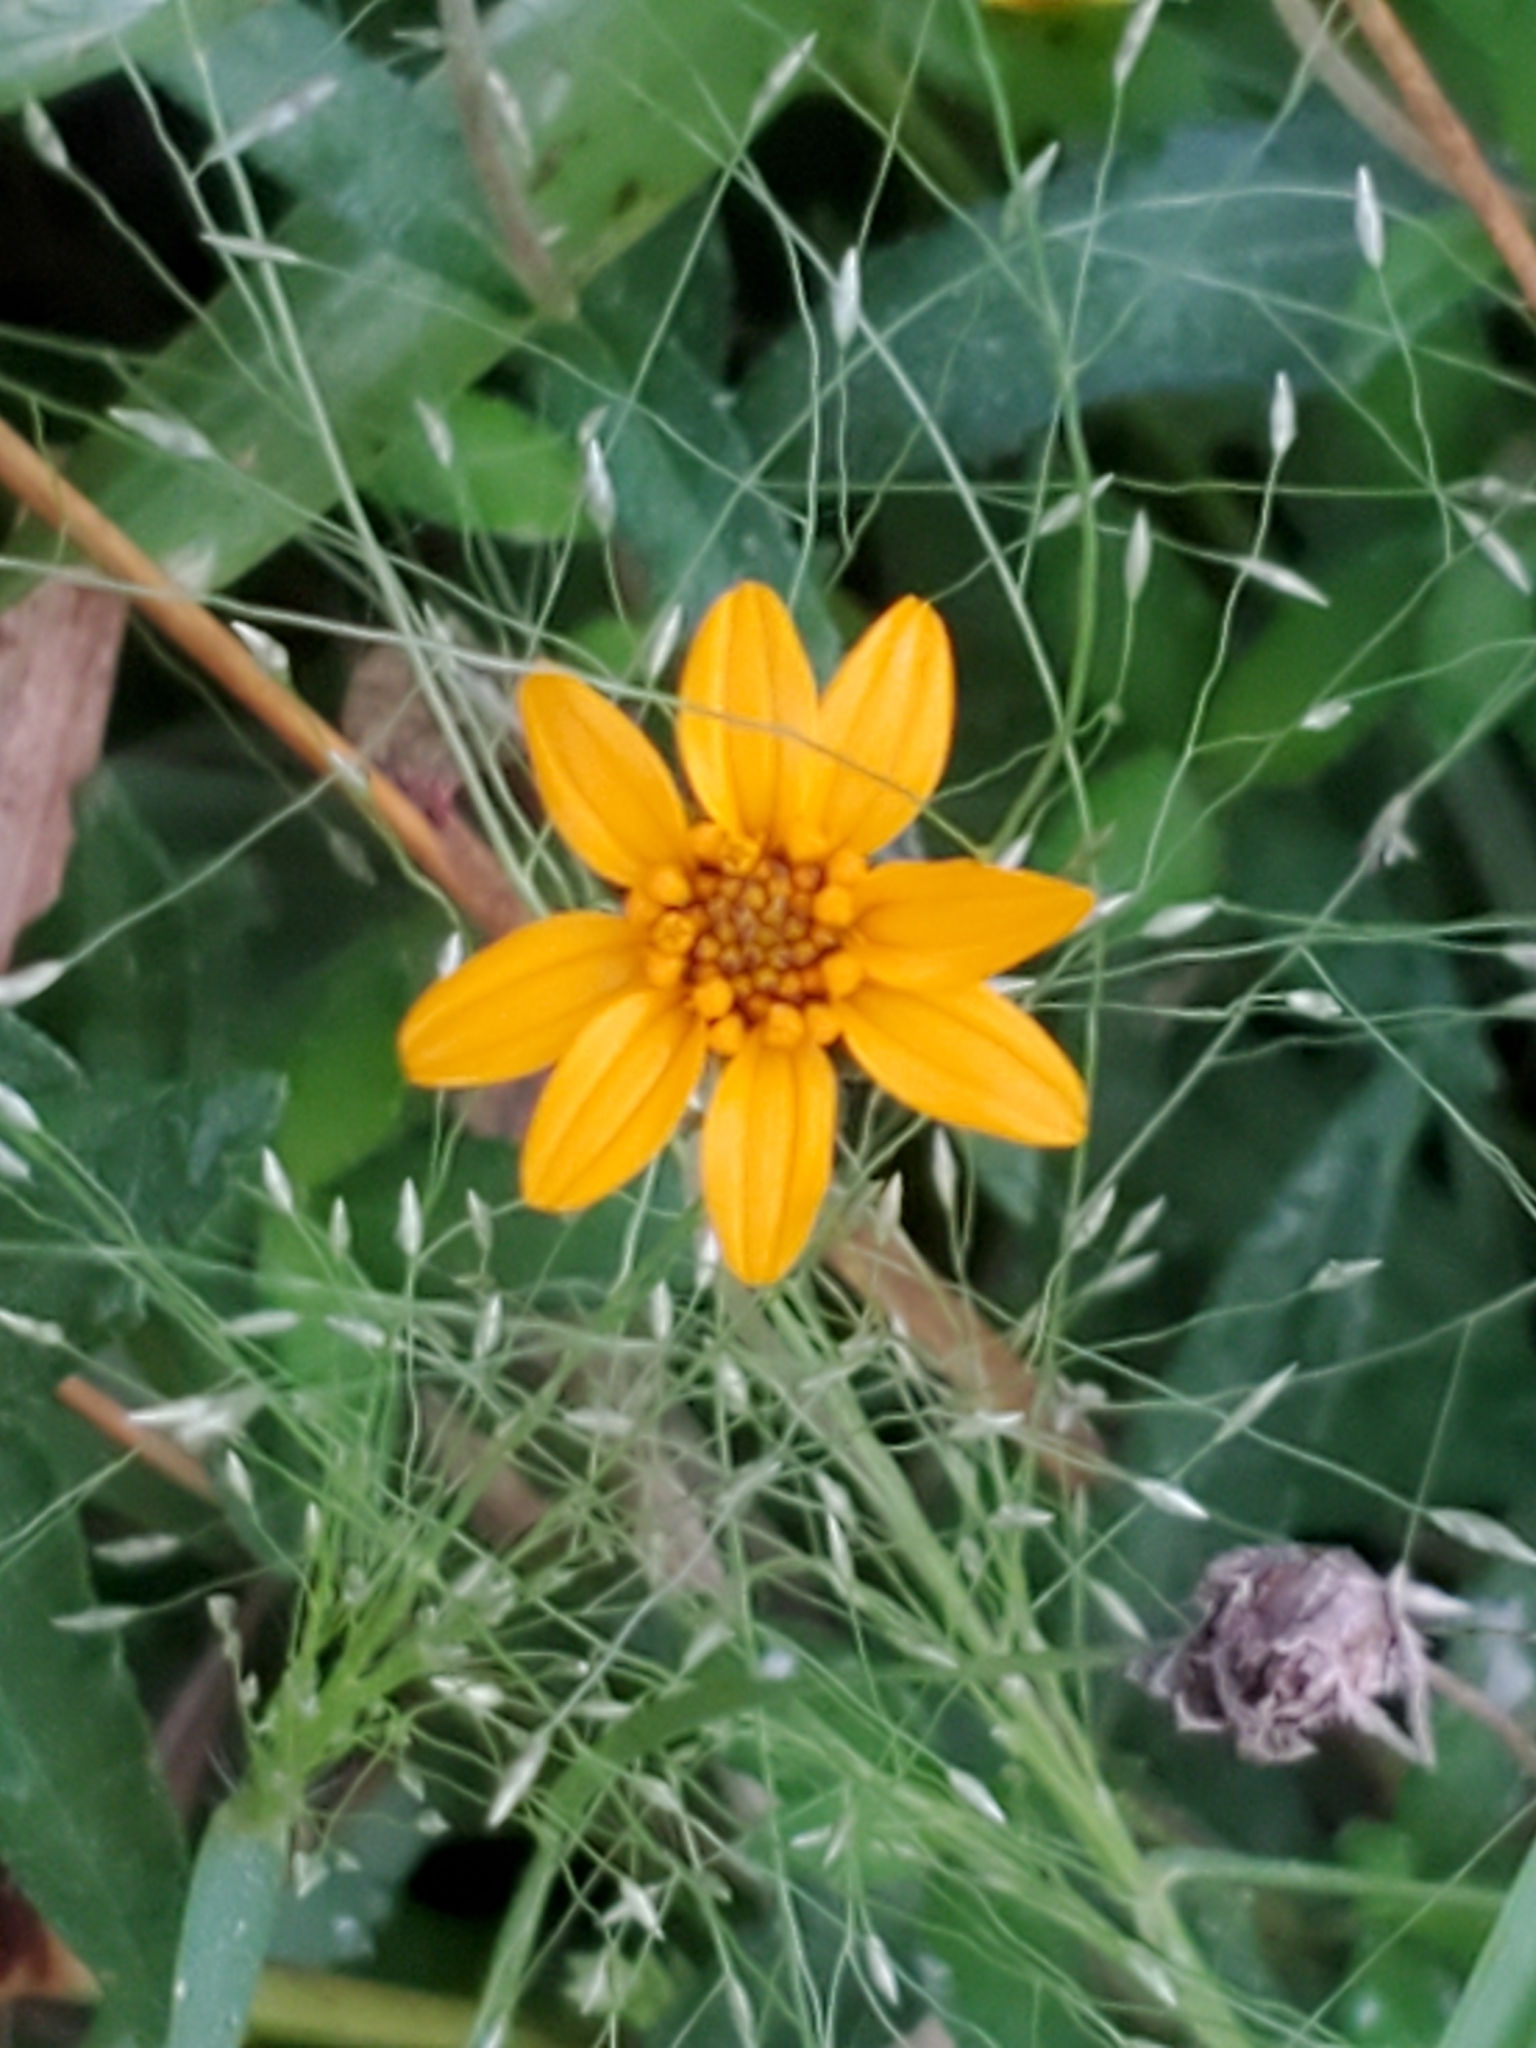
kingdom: Plantae
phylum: Tracheophyta
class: Magnoliopsida
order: Asterales
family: Asteraceae
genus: Wedelia
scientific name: Wedelia acapulcensis
